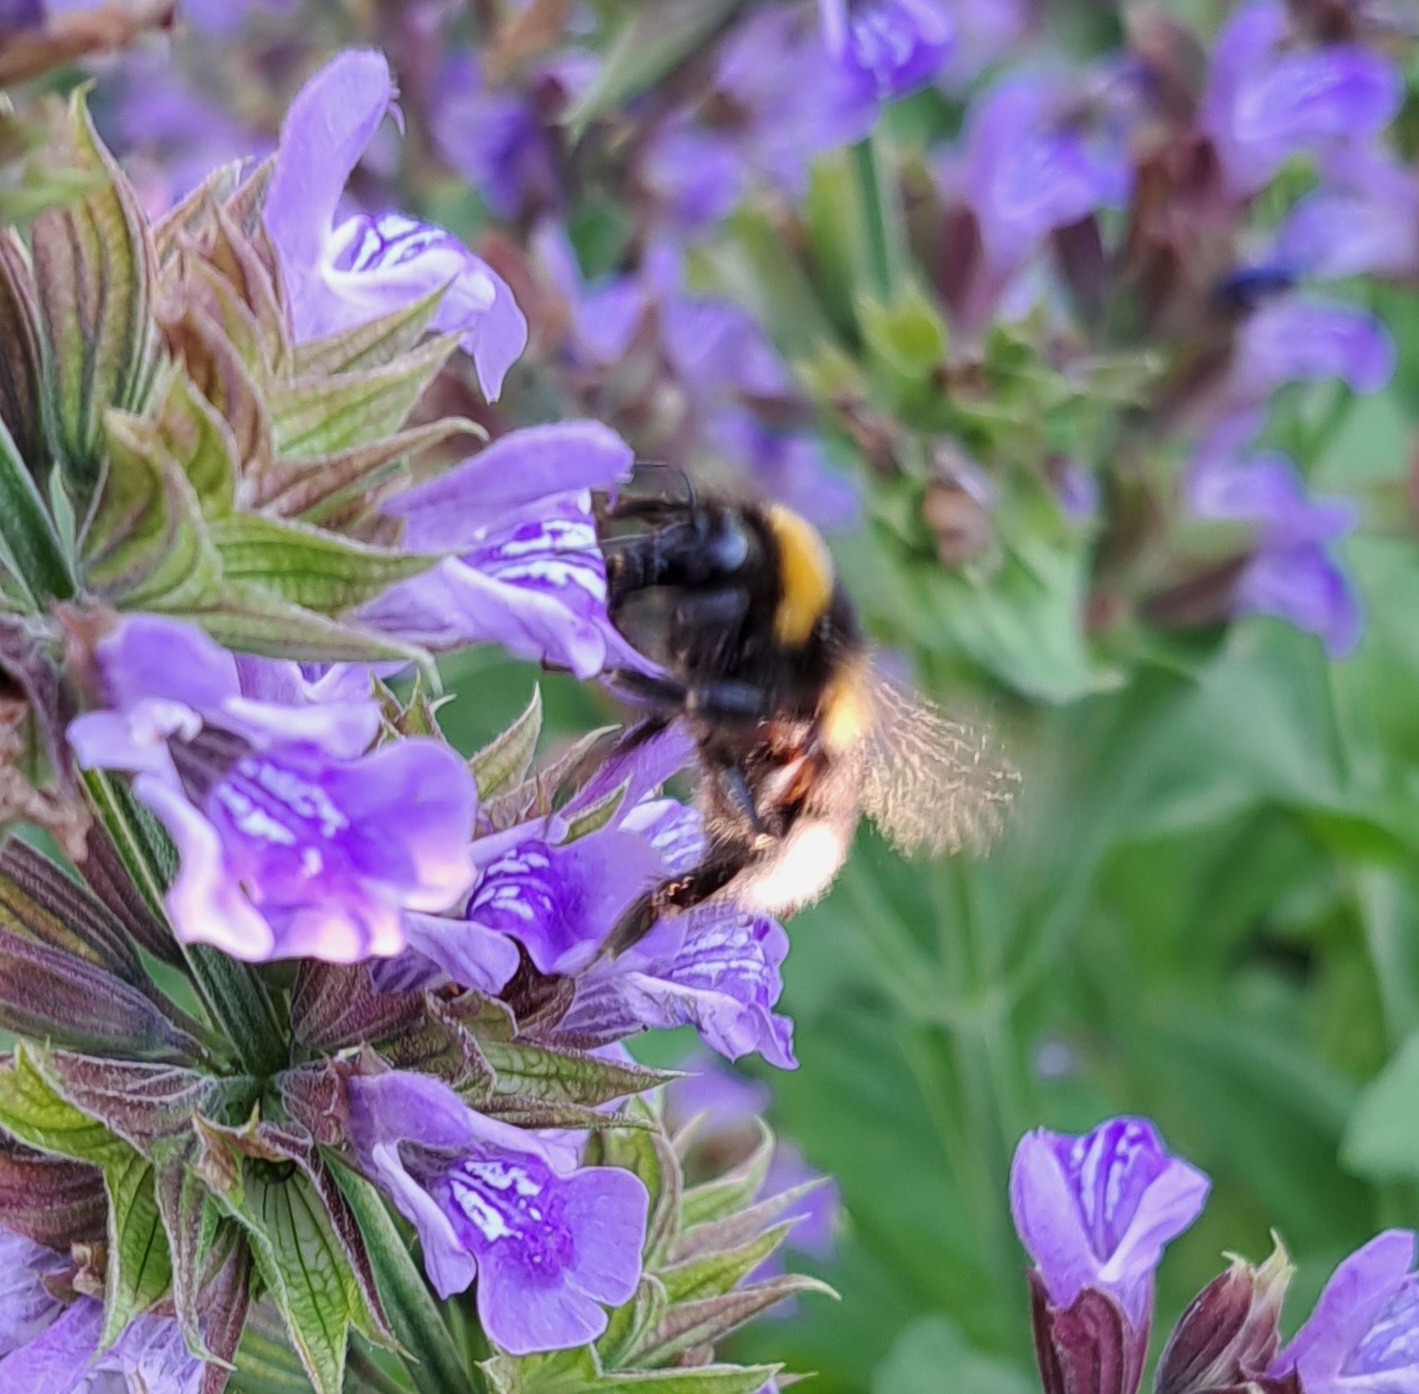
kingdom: Animalia
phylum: Arthropoda
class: Insecta
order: Hymenoptera
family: Apidae
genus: Bombus
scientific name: Bombus hortorum
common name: Garden bumblebee
